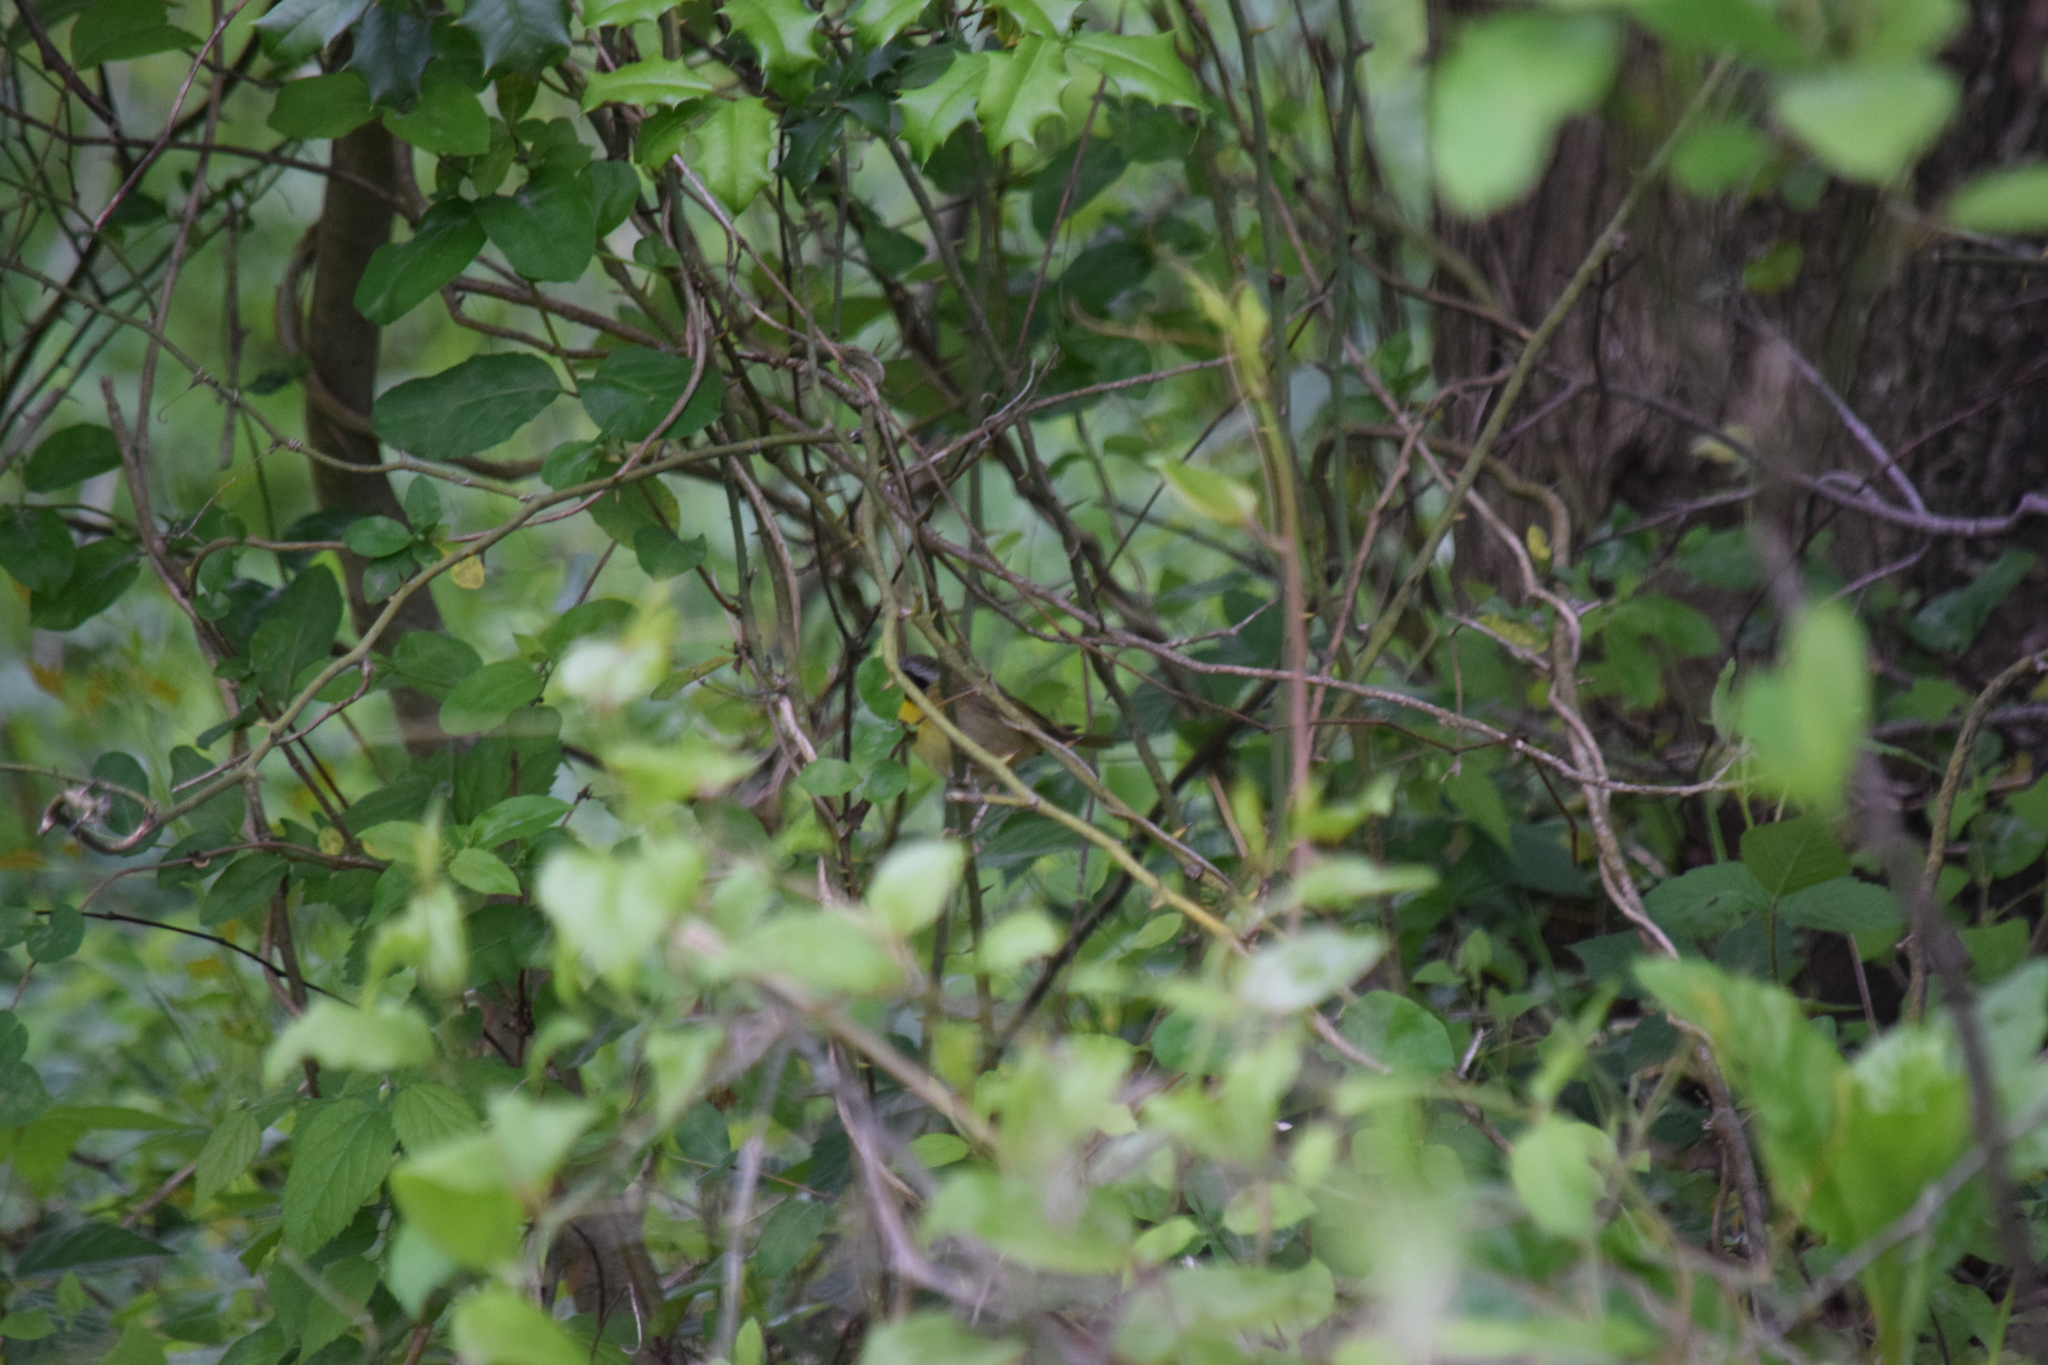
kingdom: Animalia
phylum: Chordata
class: Aves
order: Passeriformes
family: Parulidae
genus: Geothlypis
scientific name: Geothlypis trichas
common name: Common yellowthroat
